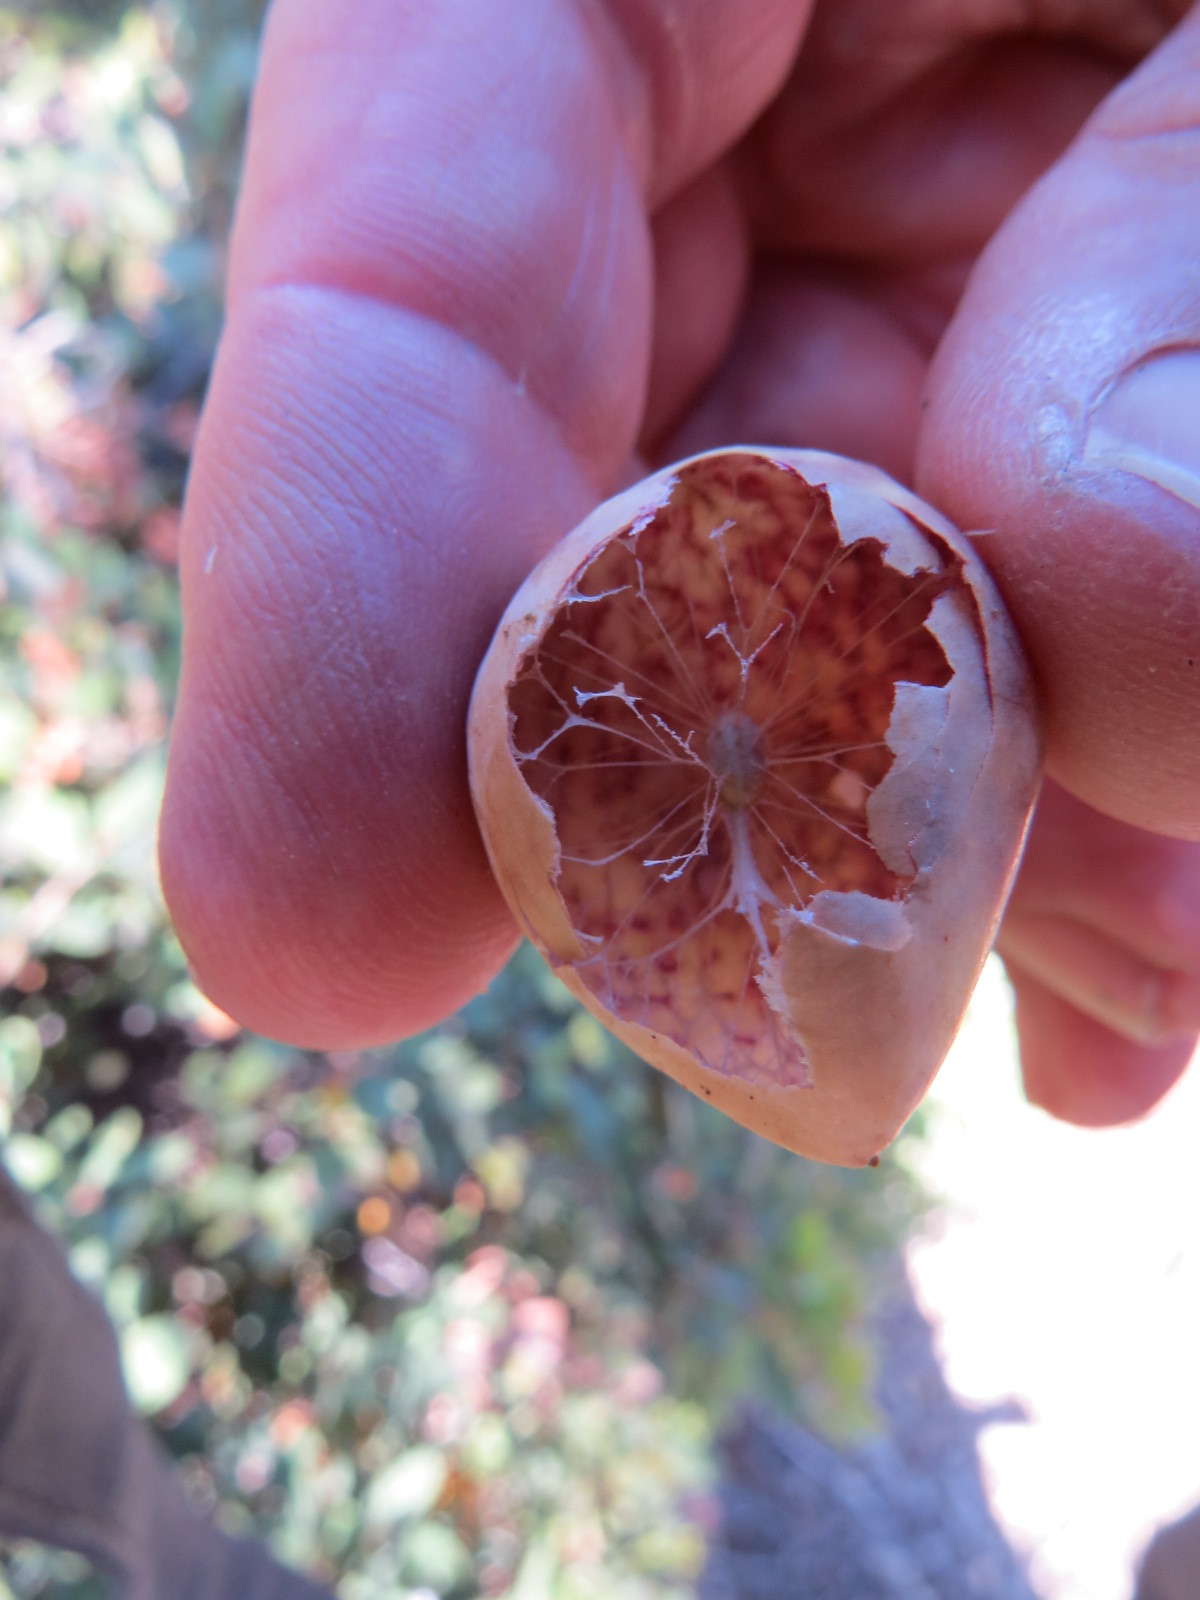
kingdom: Animalia
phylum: Arthropoda
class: Insecta
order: Hymenoptera
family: Cynipidae
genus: Andricus
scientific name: Andricus
